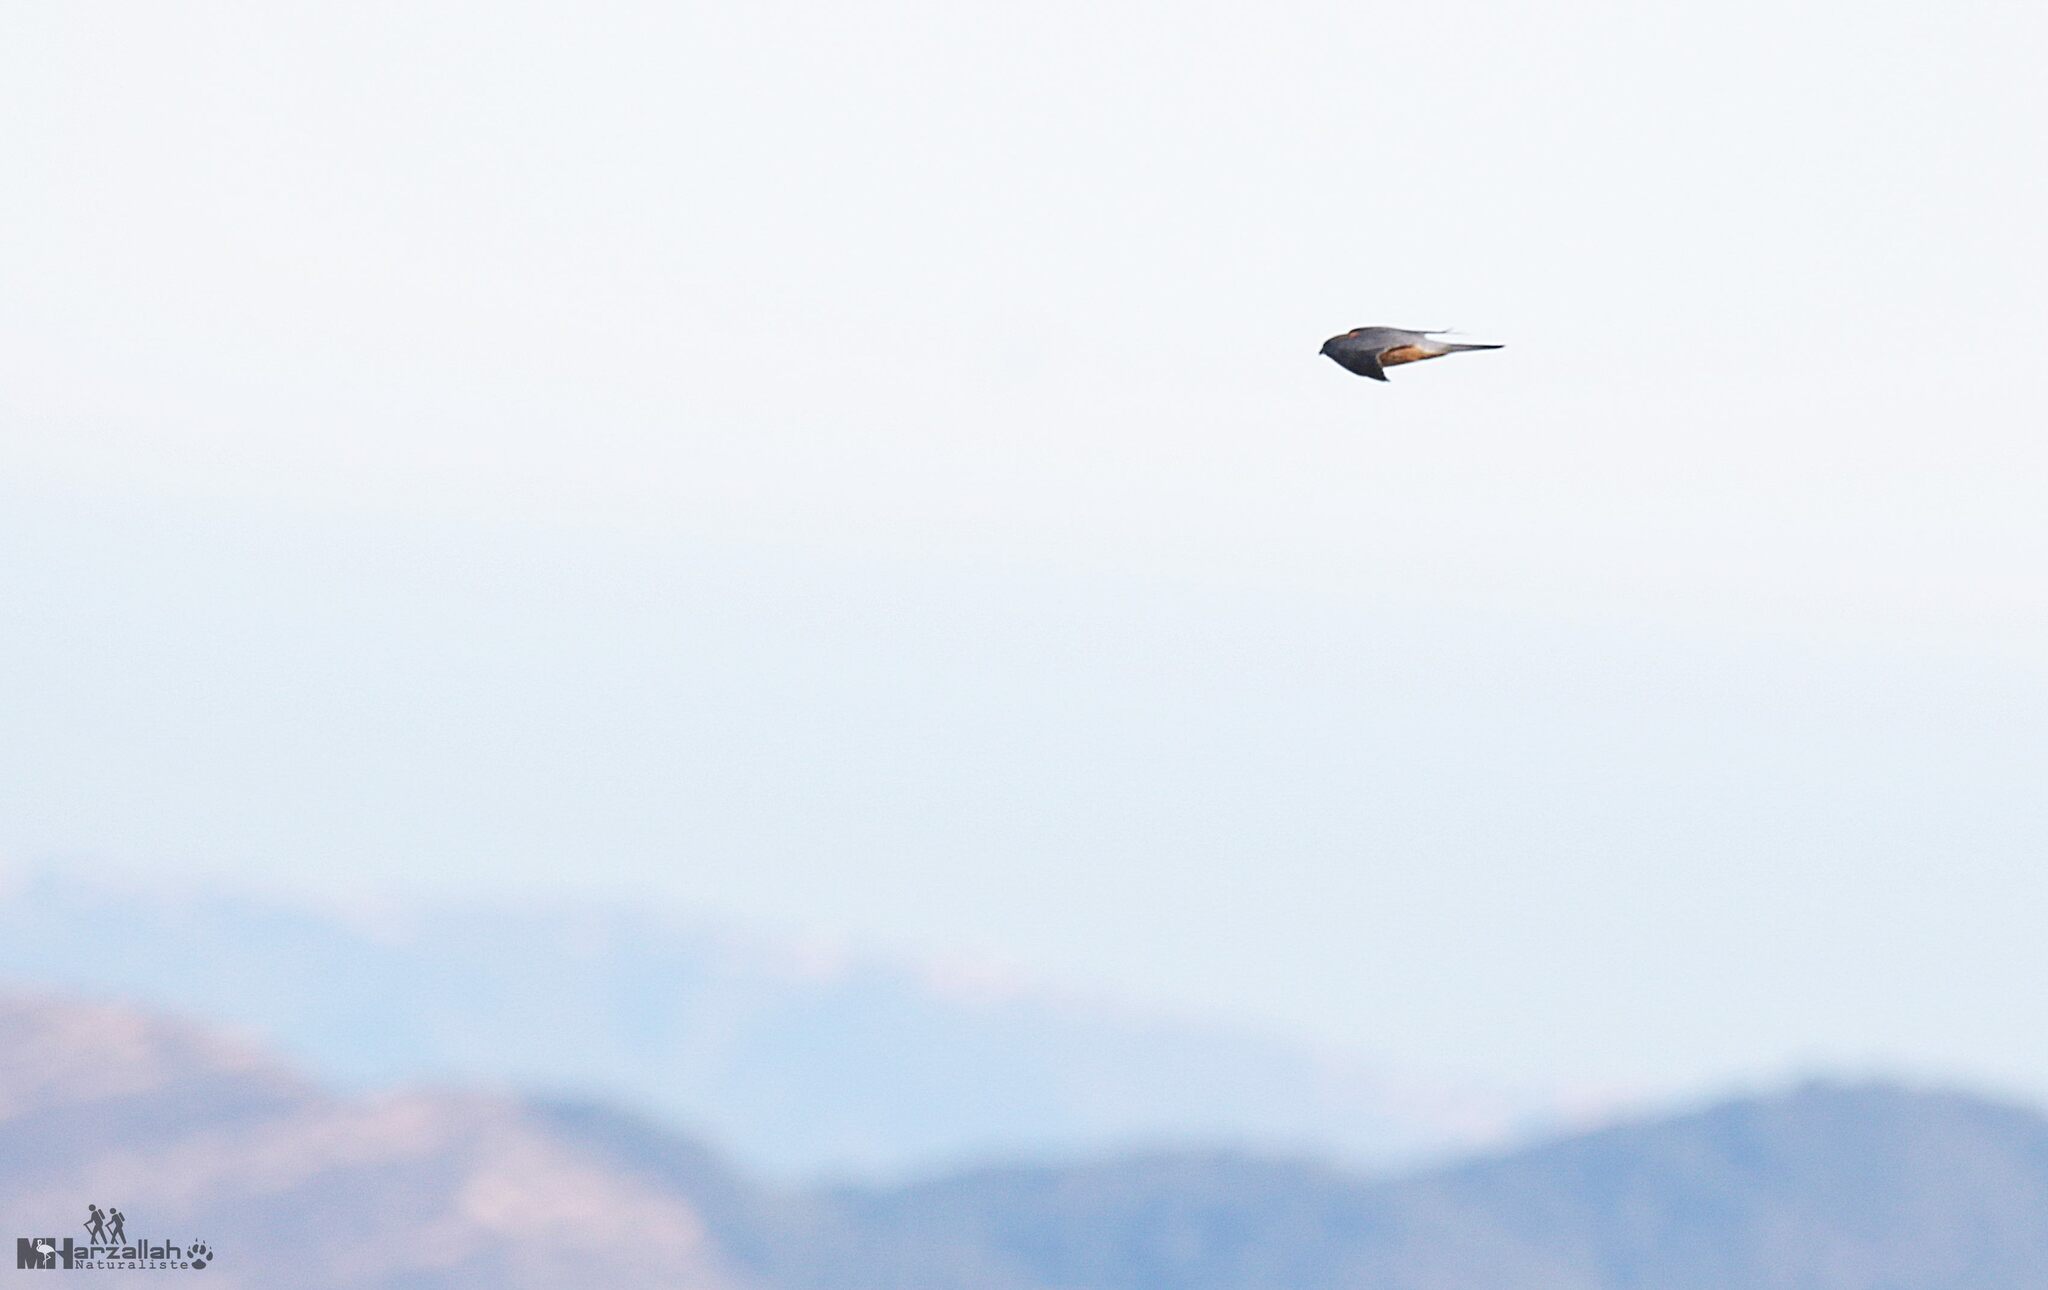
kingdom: Animalia
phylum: Chordata
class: Aves
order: Falconiformes
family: Falconidae
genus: Falco
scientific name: Falco columbarius
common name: Merlin
